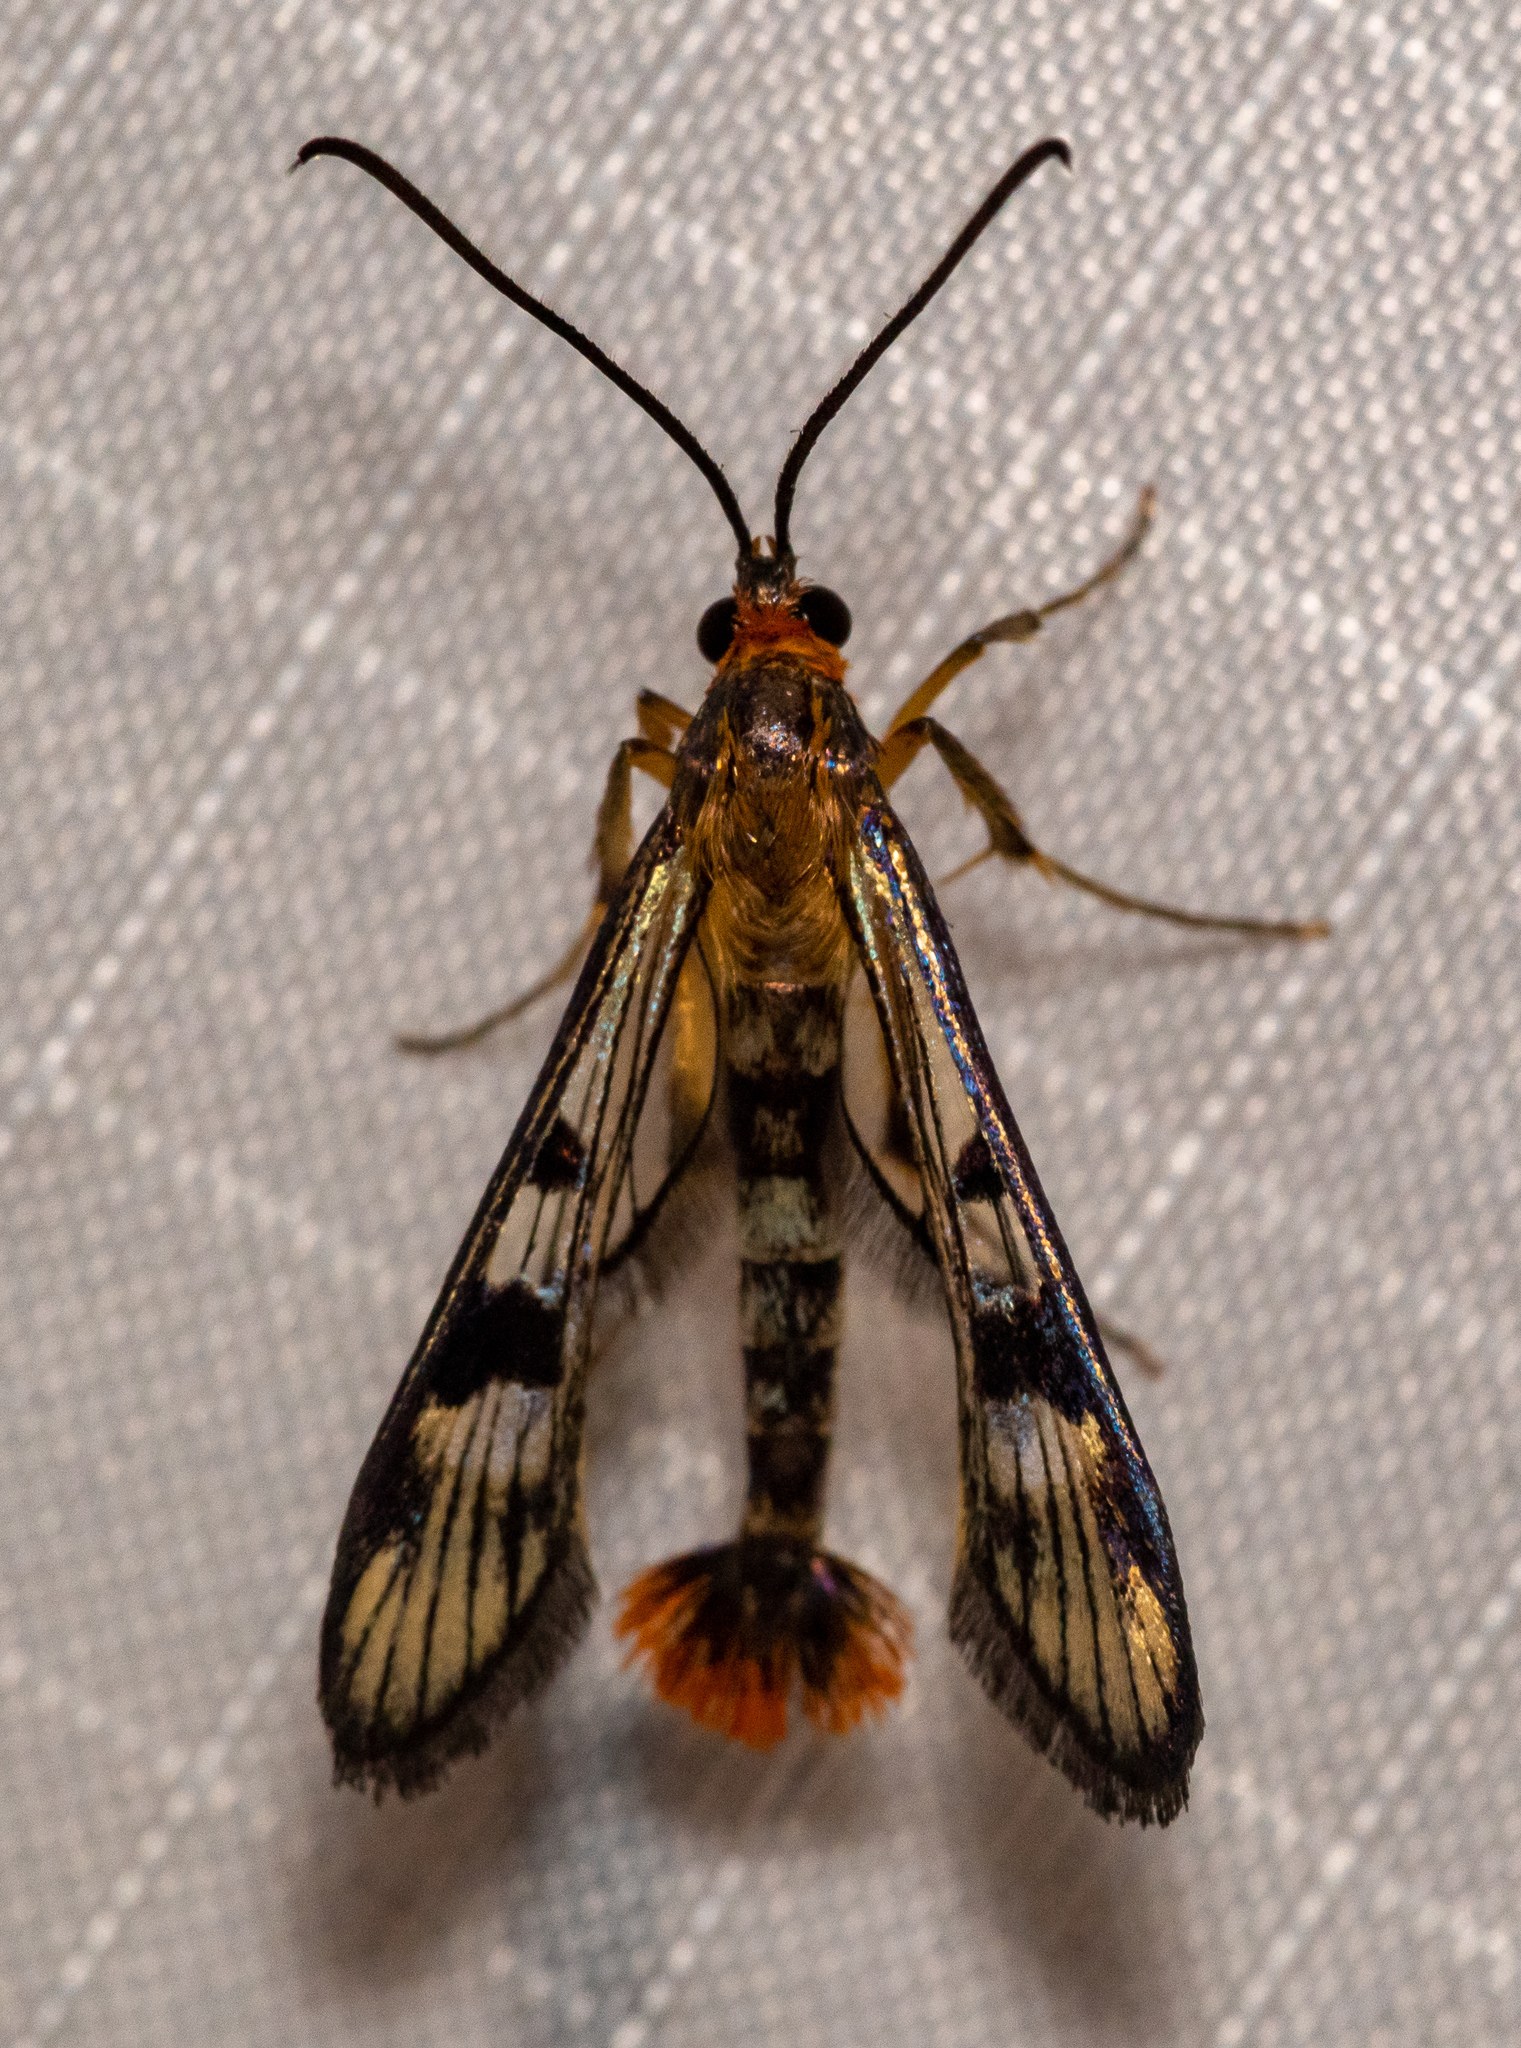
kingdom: Animalia
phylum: Arthropoda
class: Insecta
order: Lepidoptera
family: Sesiidae
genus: Synanthedon
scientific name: Synanthedon acerni
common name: Maple callus borer moth
